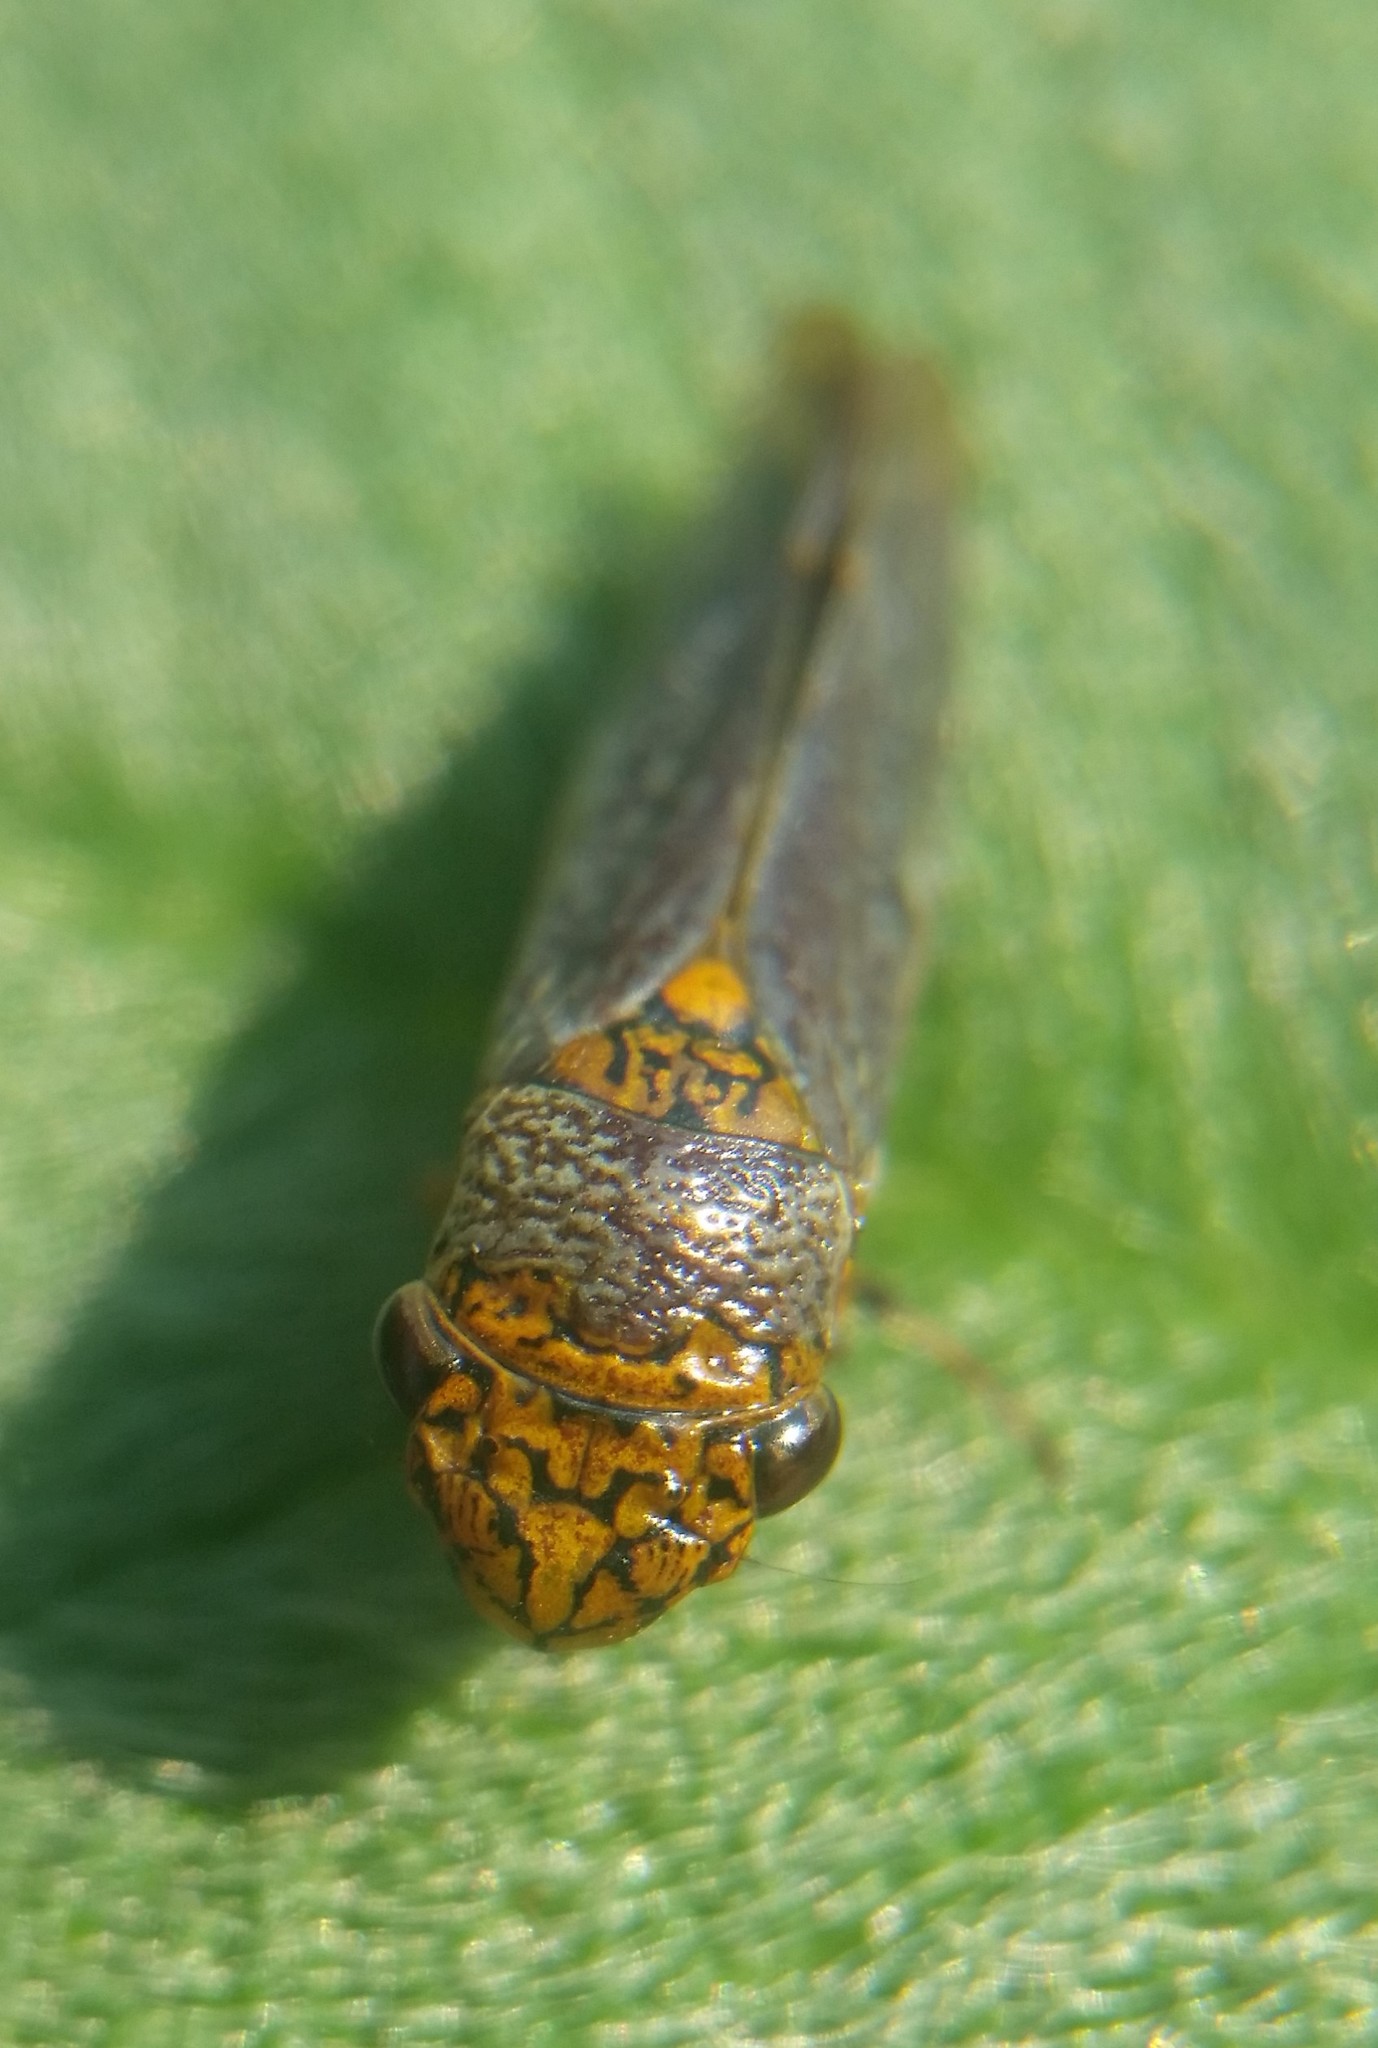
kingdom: Animalia
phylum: Arthropoda
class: Insecta
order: Hemiptera
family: Cicadellidae
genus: Oncometopia
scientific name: Oncometopia orbona
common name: Broad-headed sharpshooter
